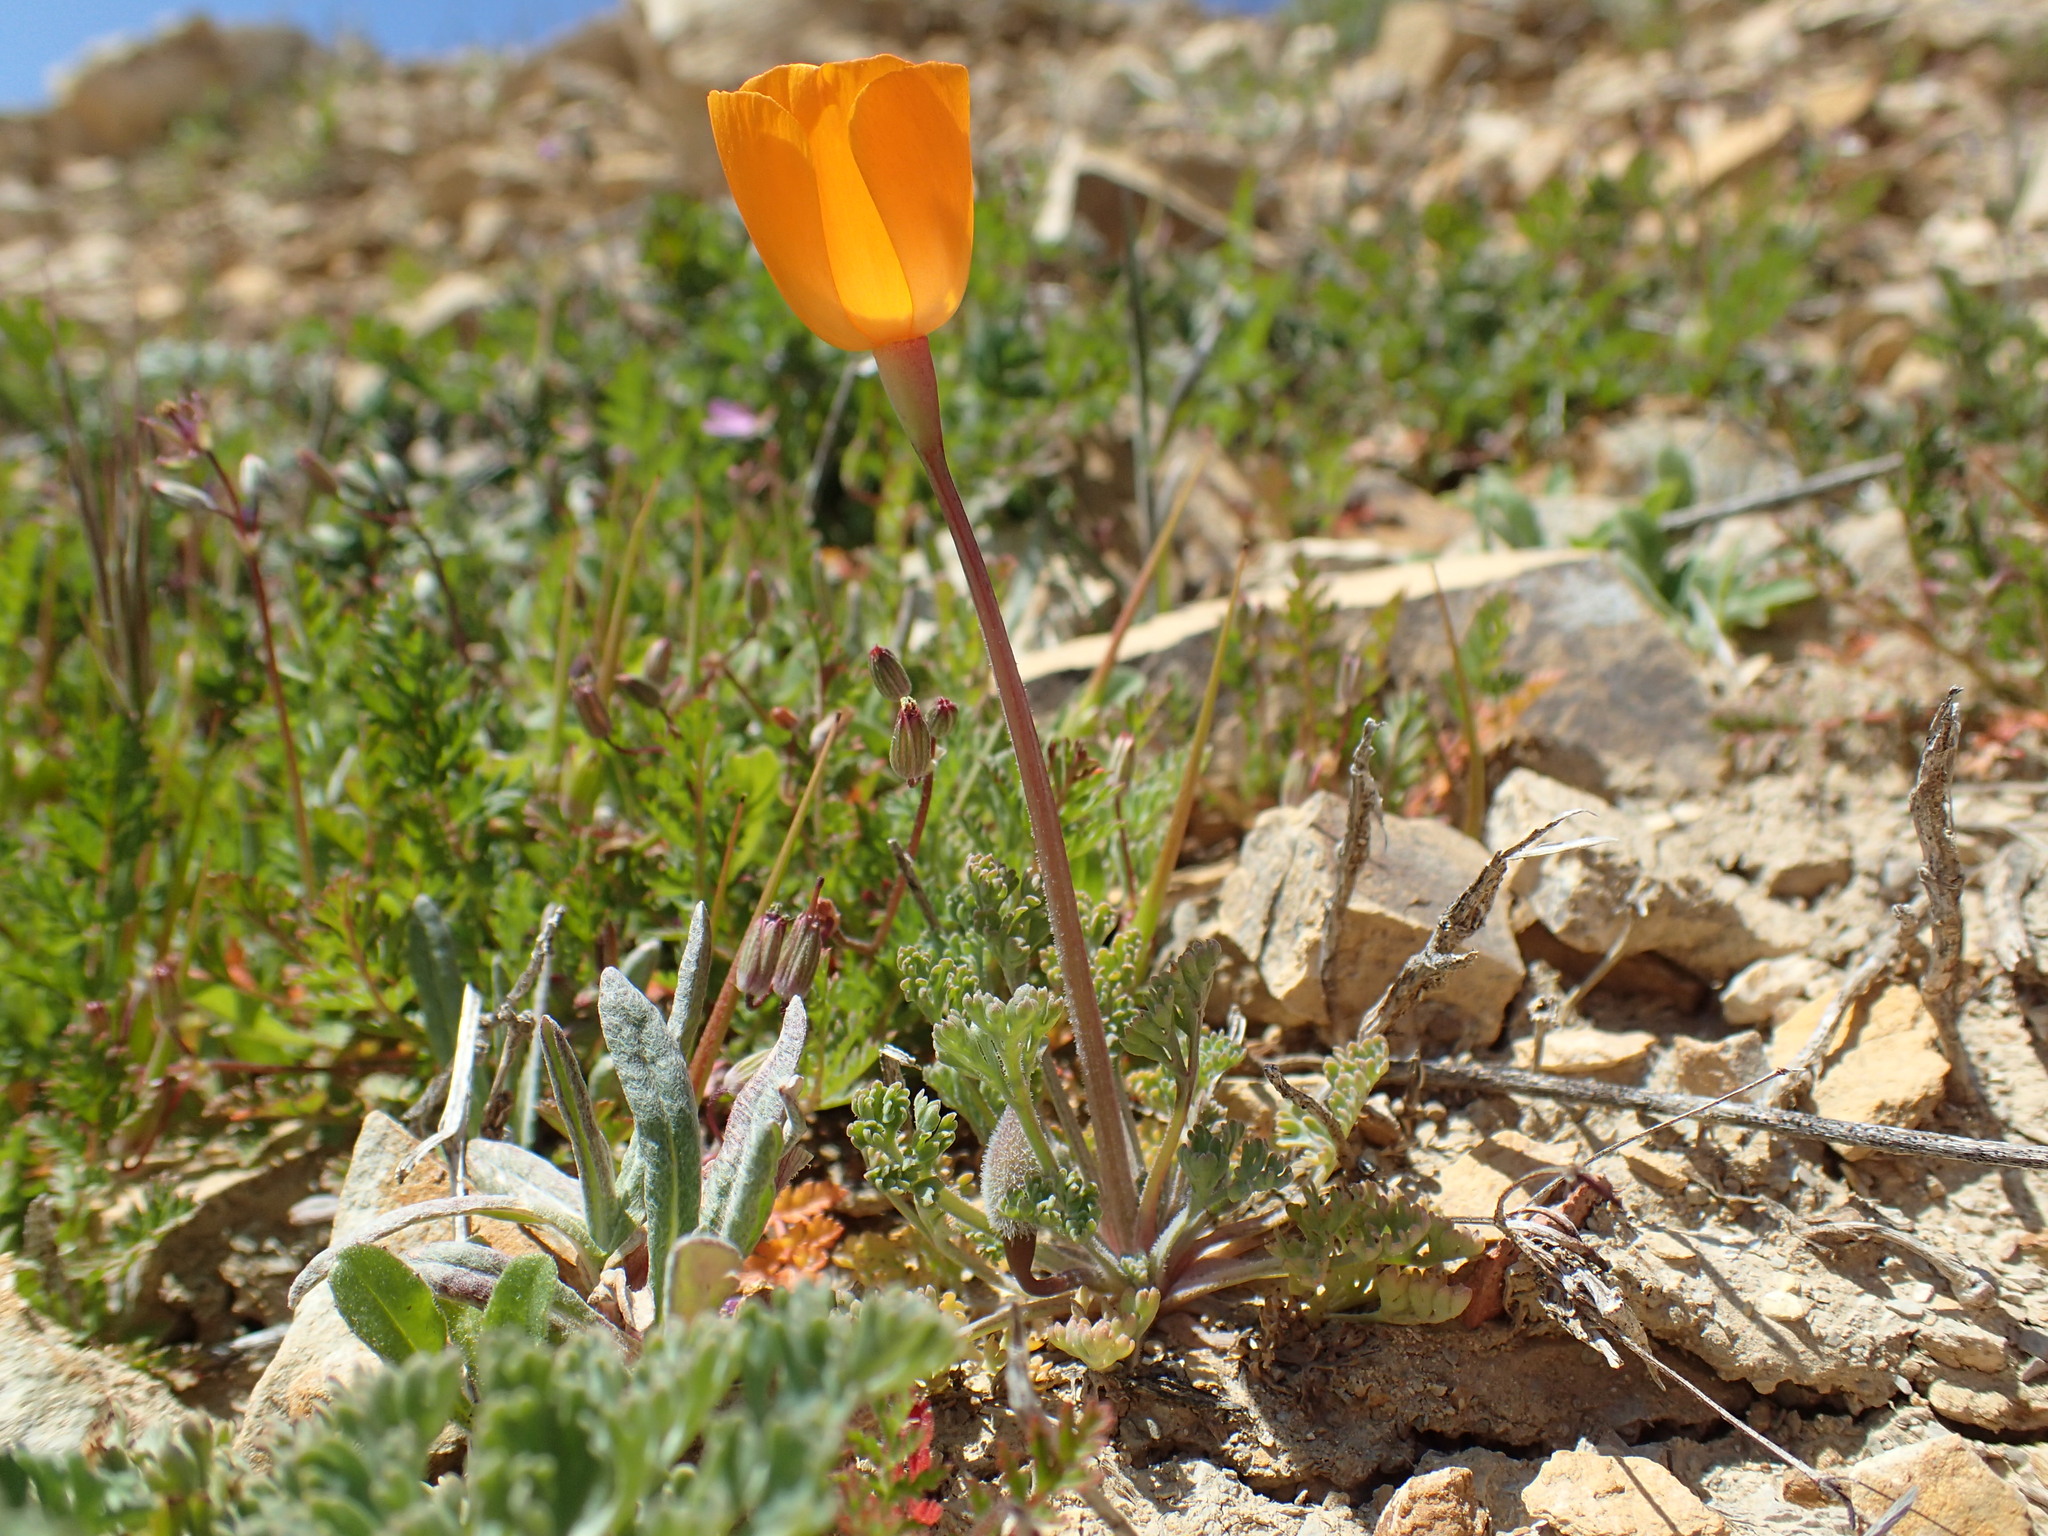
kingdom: Plantae
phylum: Tracheophyta
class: Magnoliopsida
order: Ranunculales
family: Papaveraceae
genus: Eschscholzia
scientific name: Eschscholzia lemmonii
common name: Lemmon's poppy
